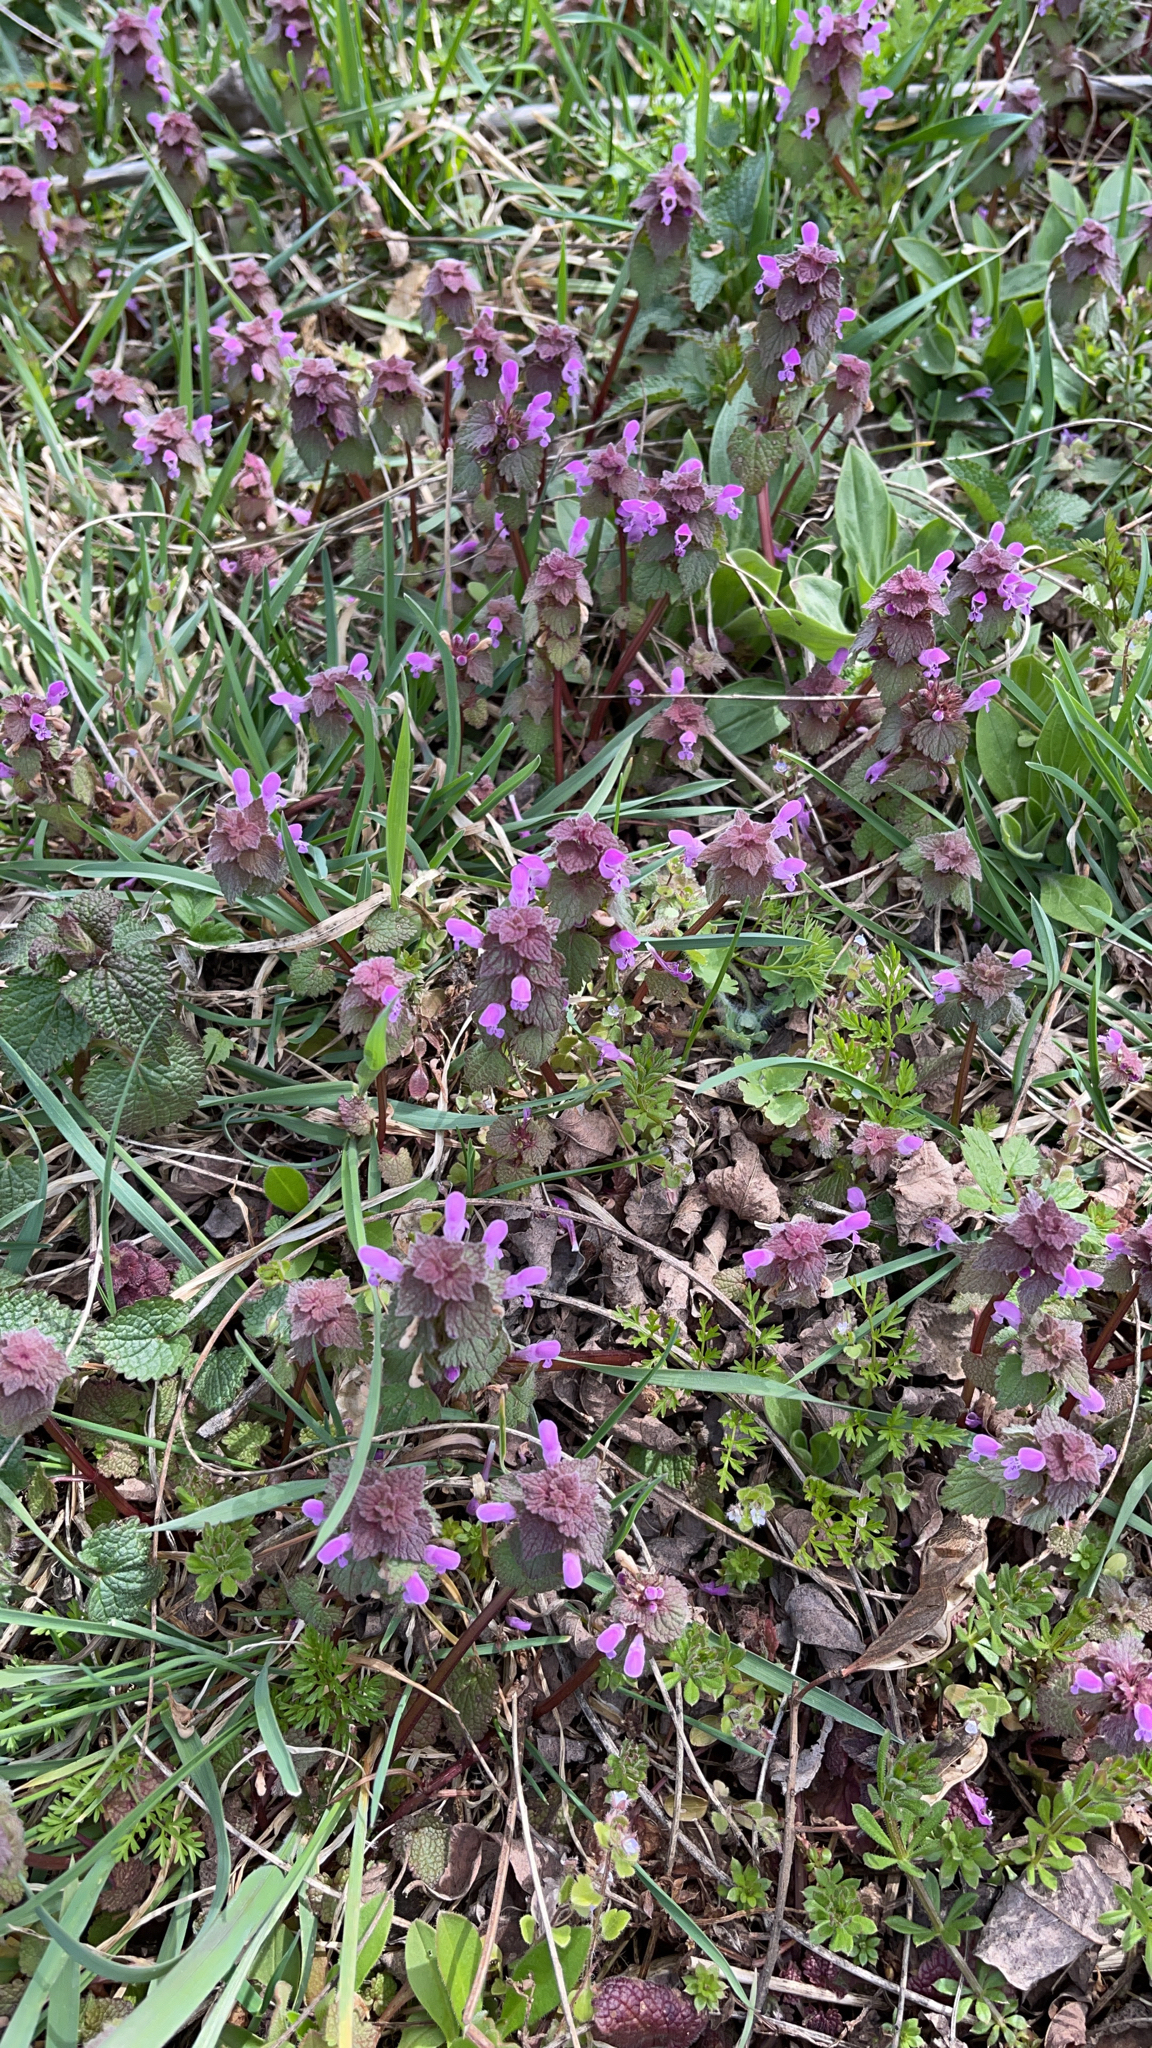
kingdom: Plantae
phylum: Tracheophyta
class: Magnoliopsida
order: Lamiales
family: Lamiaceae
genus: Lamium
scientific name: Lamium purpureum
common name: Red dead-nettle
